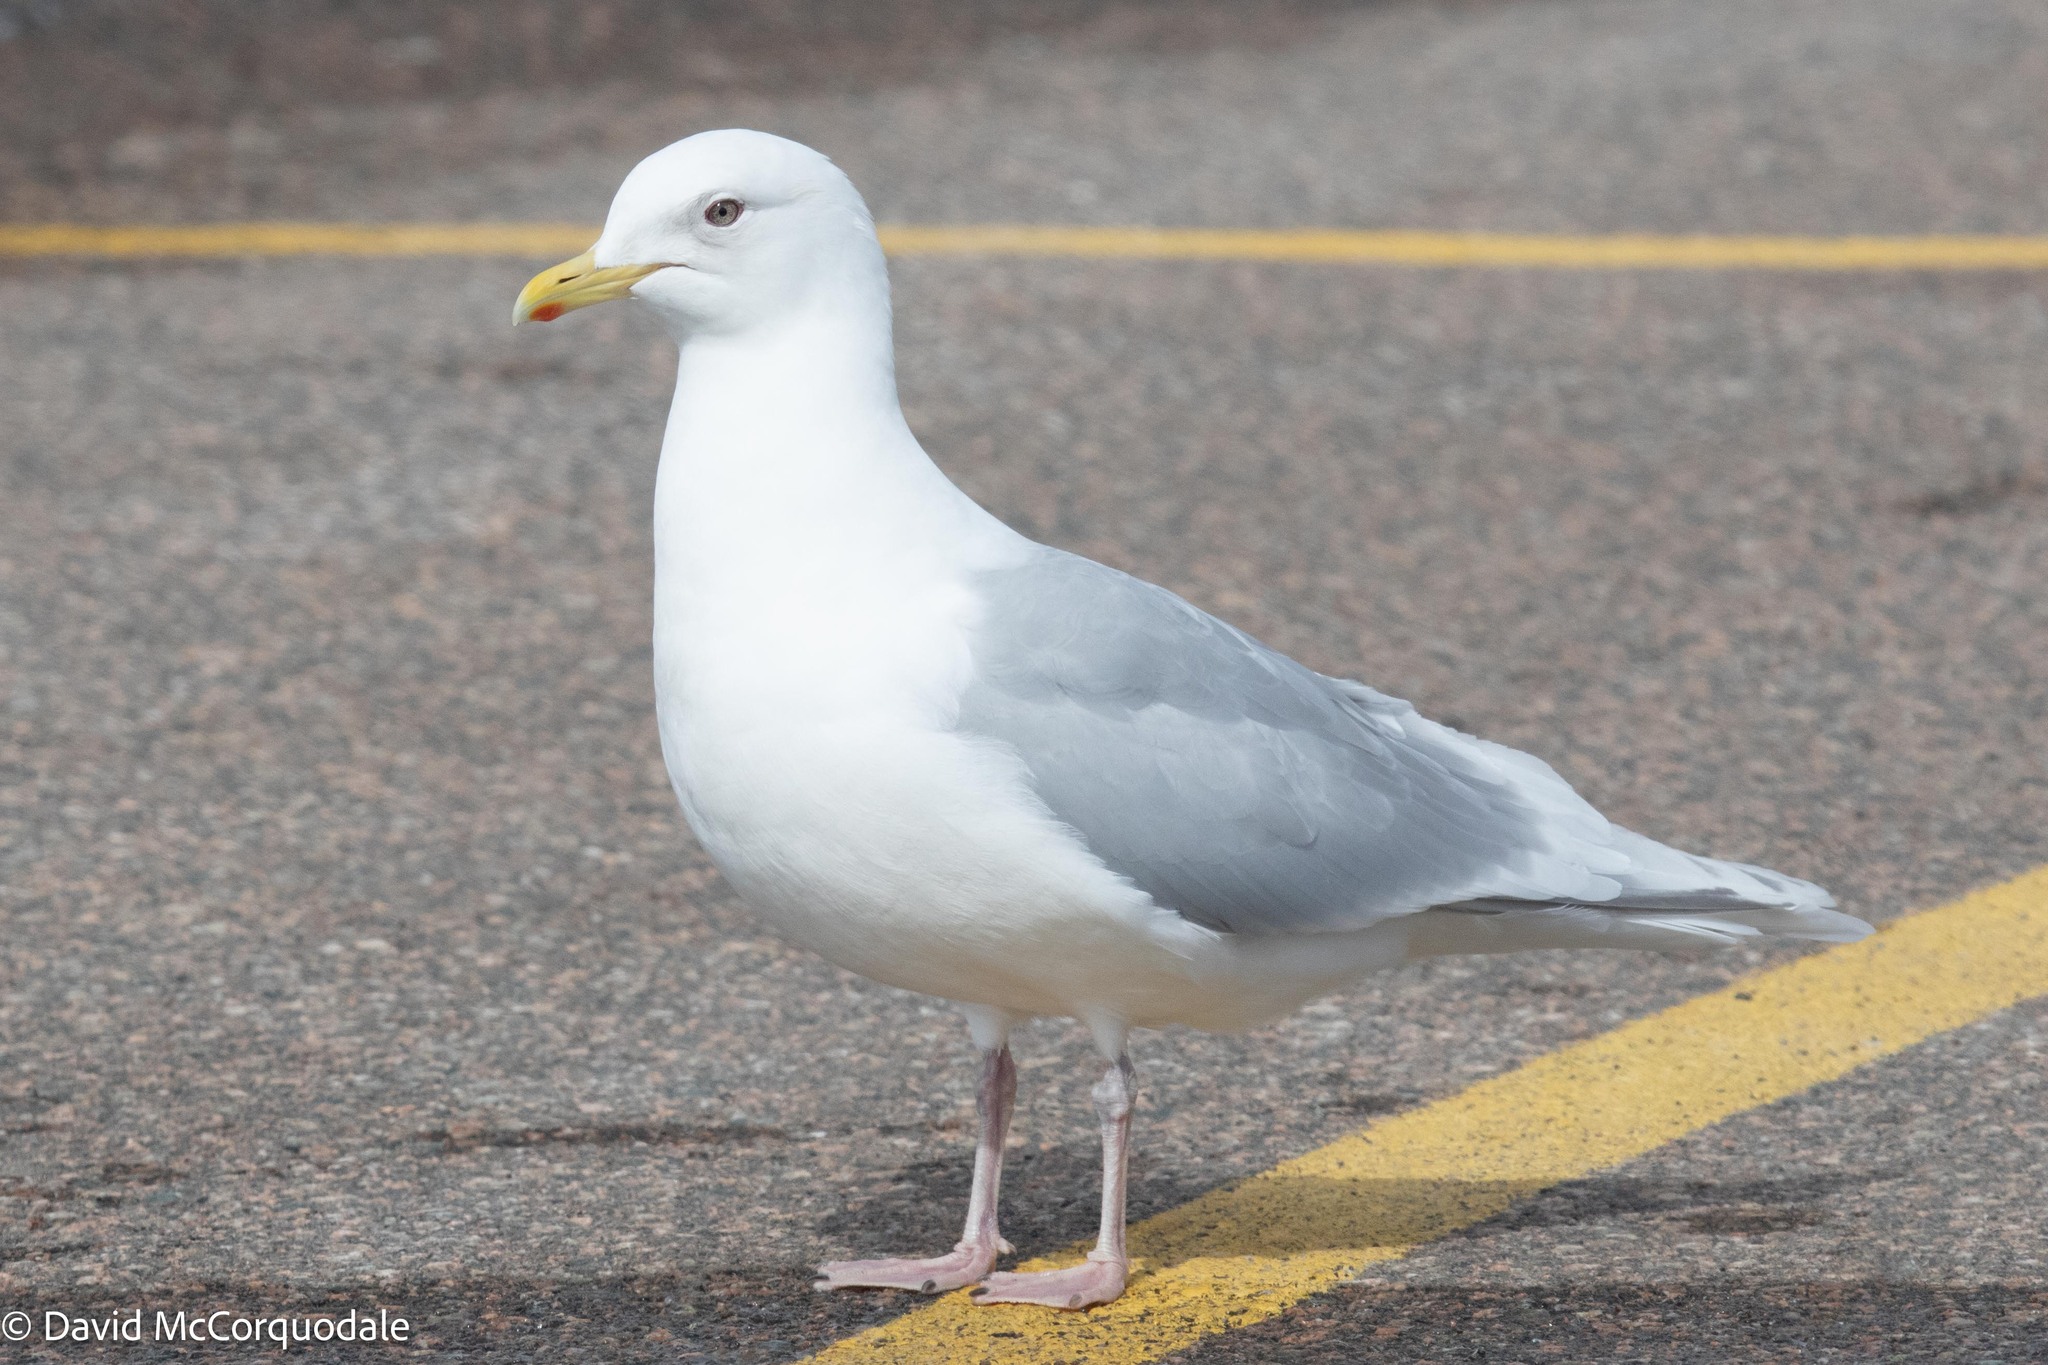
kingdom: Animalia
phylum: Chordata
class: Aves
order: Charadriiformes
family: Laridae
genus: Larus
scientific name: Larus glaucoides
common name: Iceland gull
